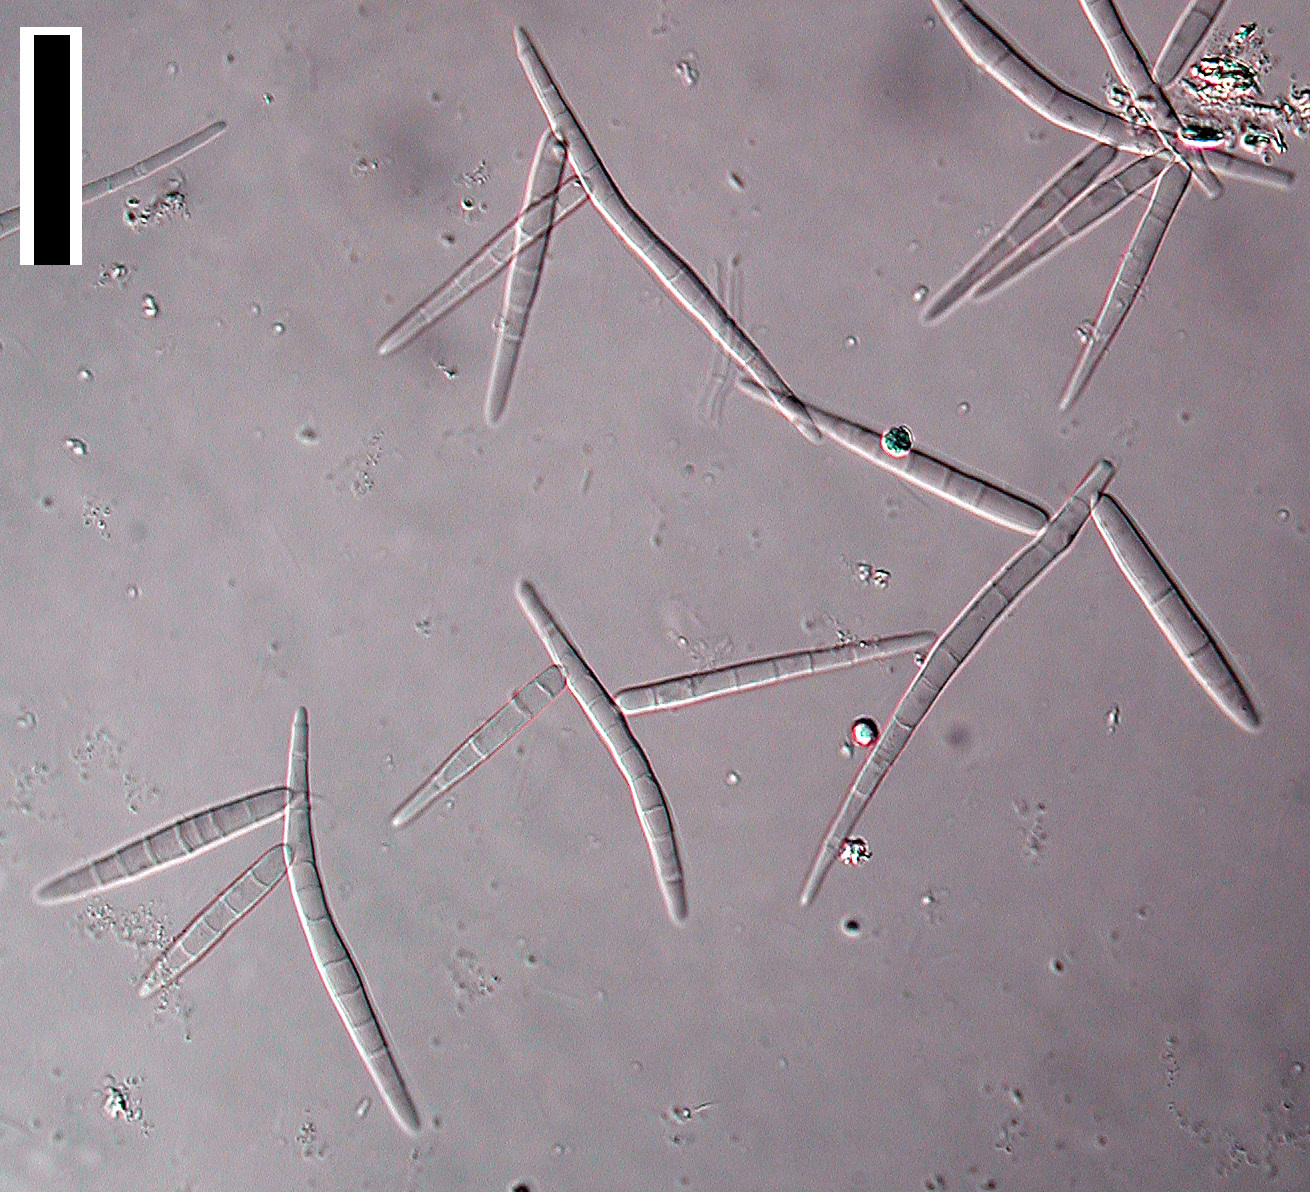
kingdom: Fungi
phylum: Ascomycota
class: Leotiomycetes
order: Helotiales
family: Tricladiaceae
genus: Tricladium
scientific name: Tricladium splendens
